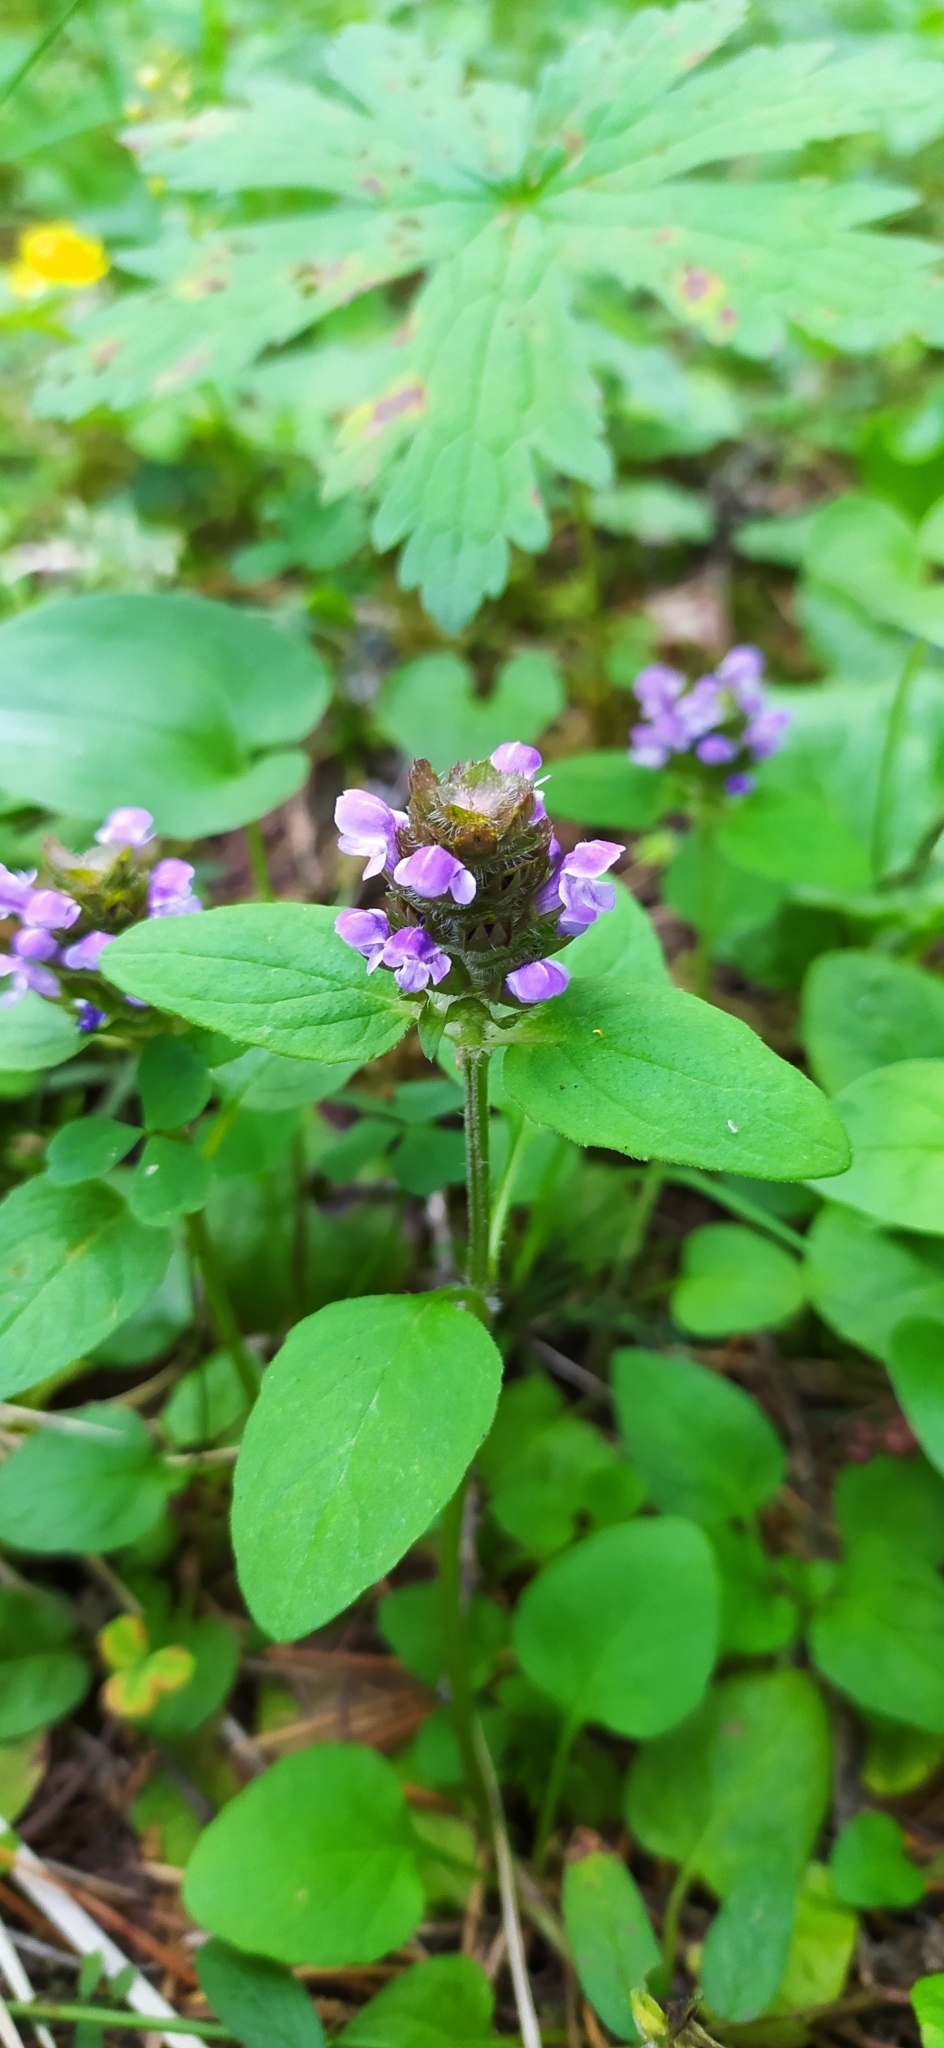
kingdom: Plantae
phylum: Tracheophyta
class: Magnoliopsida
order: Lamiales
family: Lamiaceae
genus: Prunella
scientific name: Prunella vulgaris
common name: Heal-all
